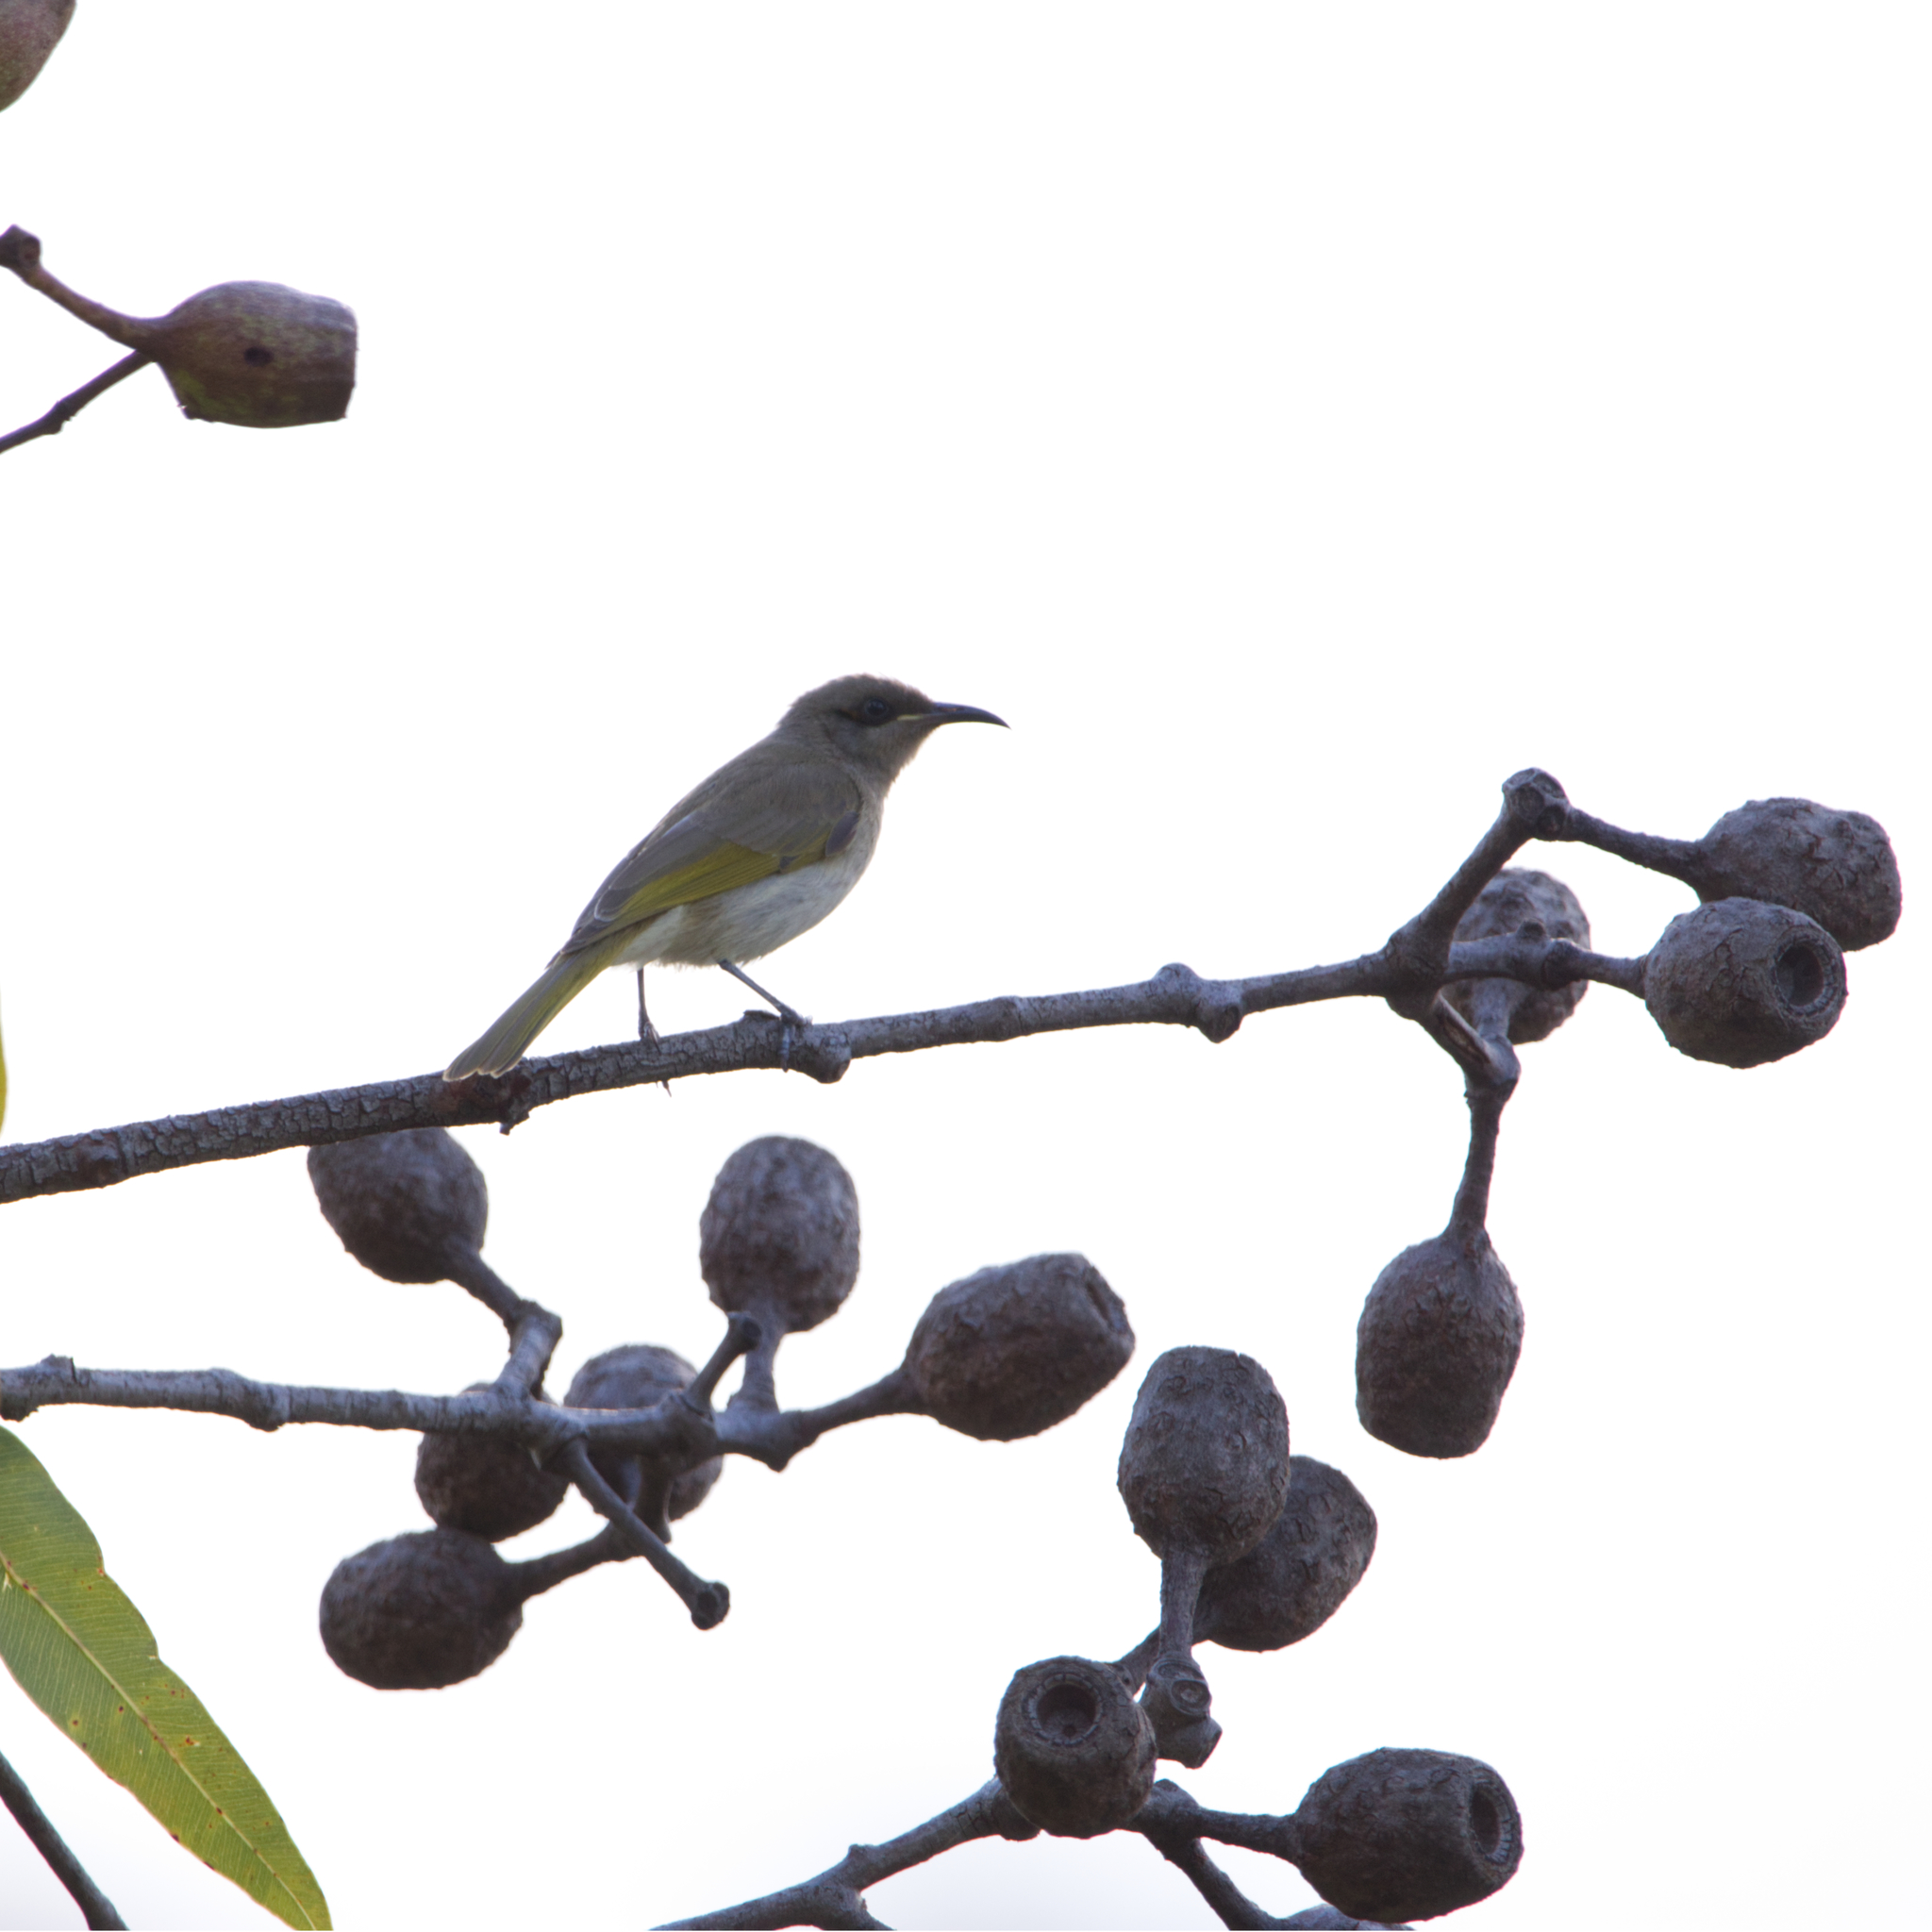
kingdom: Animalia
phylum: Chordata
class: Aves
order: Passeriformes
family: Meliphagidae
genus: Lichmera
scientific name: Lichmera indistincta
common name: Brown honeyeater
